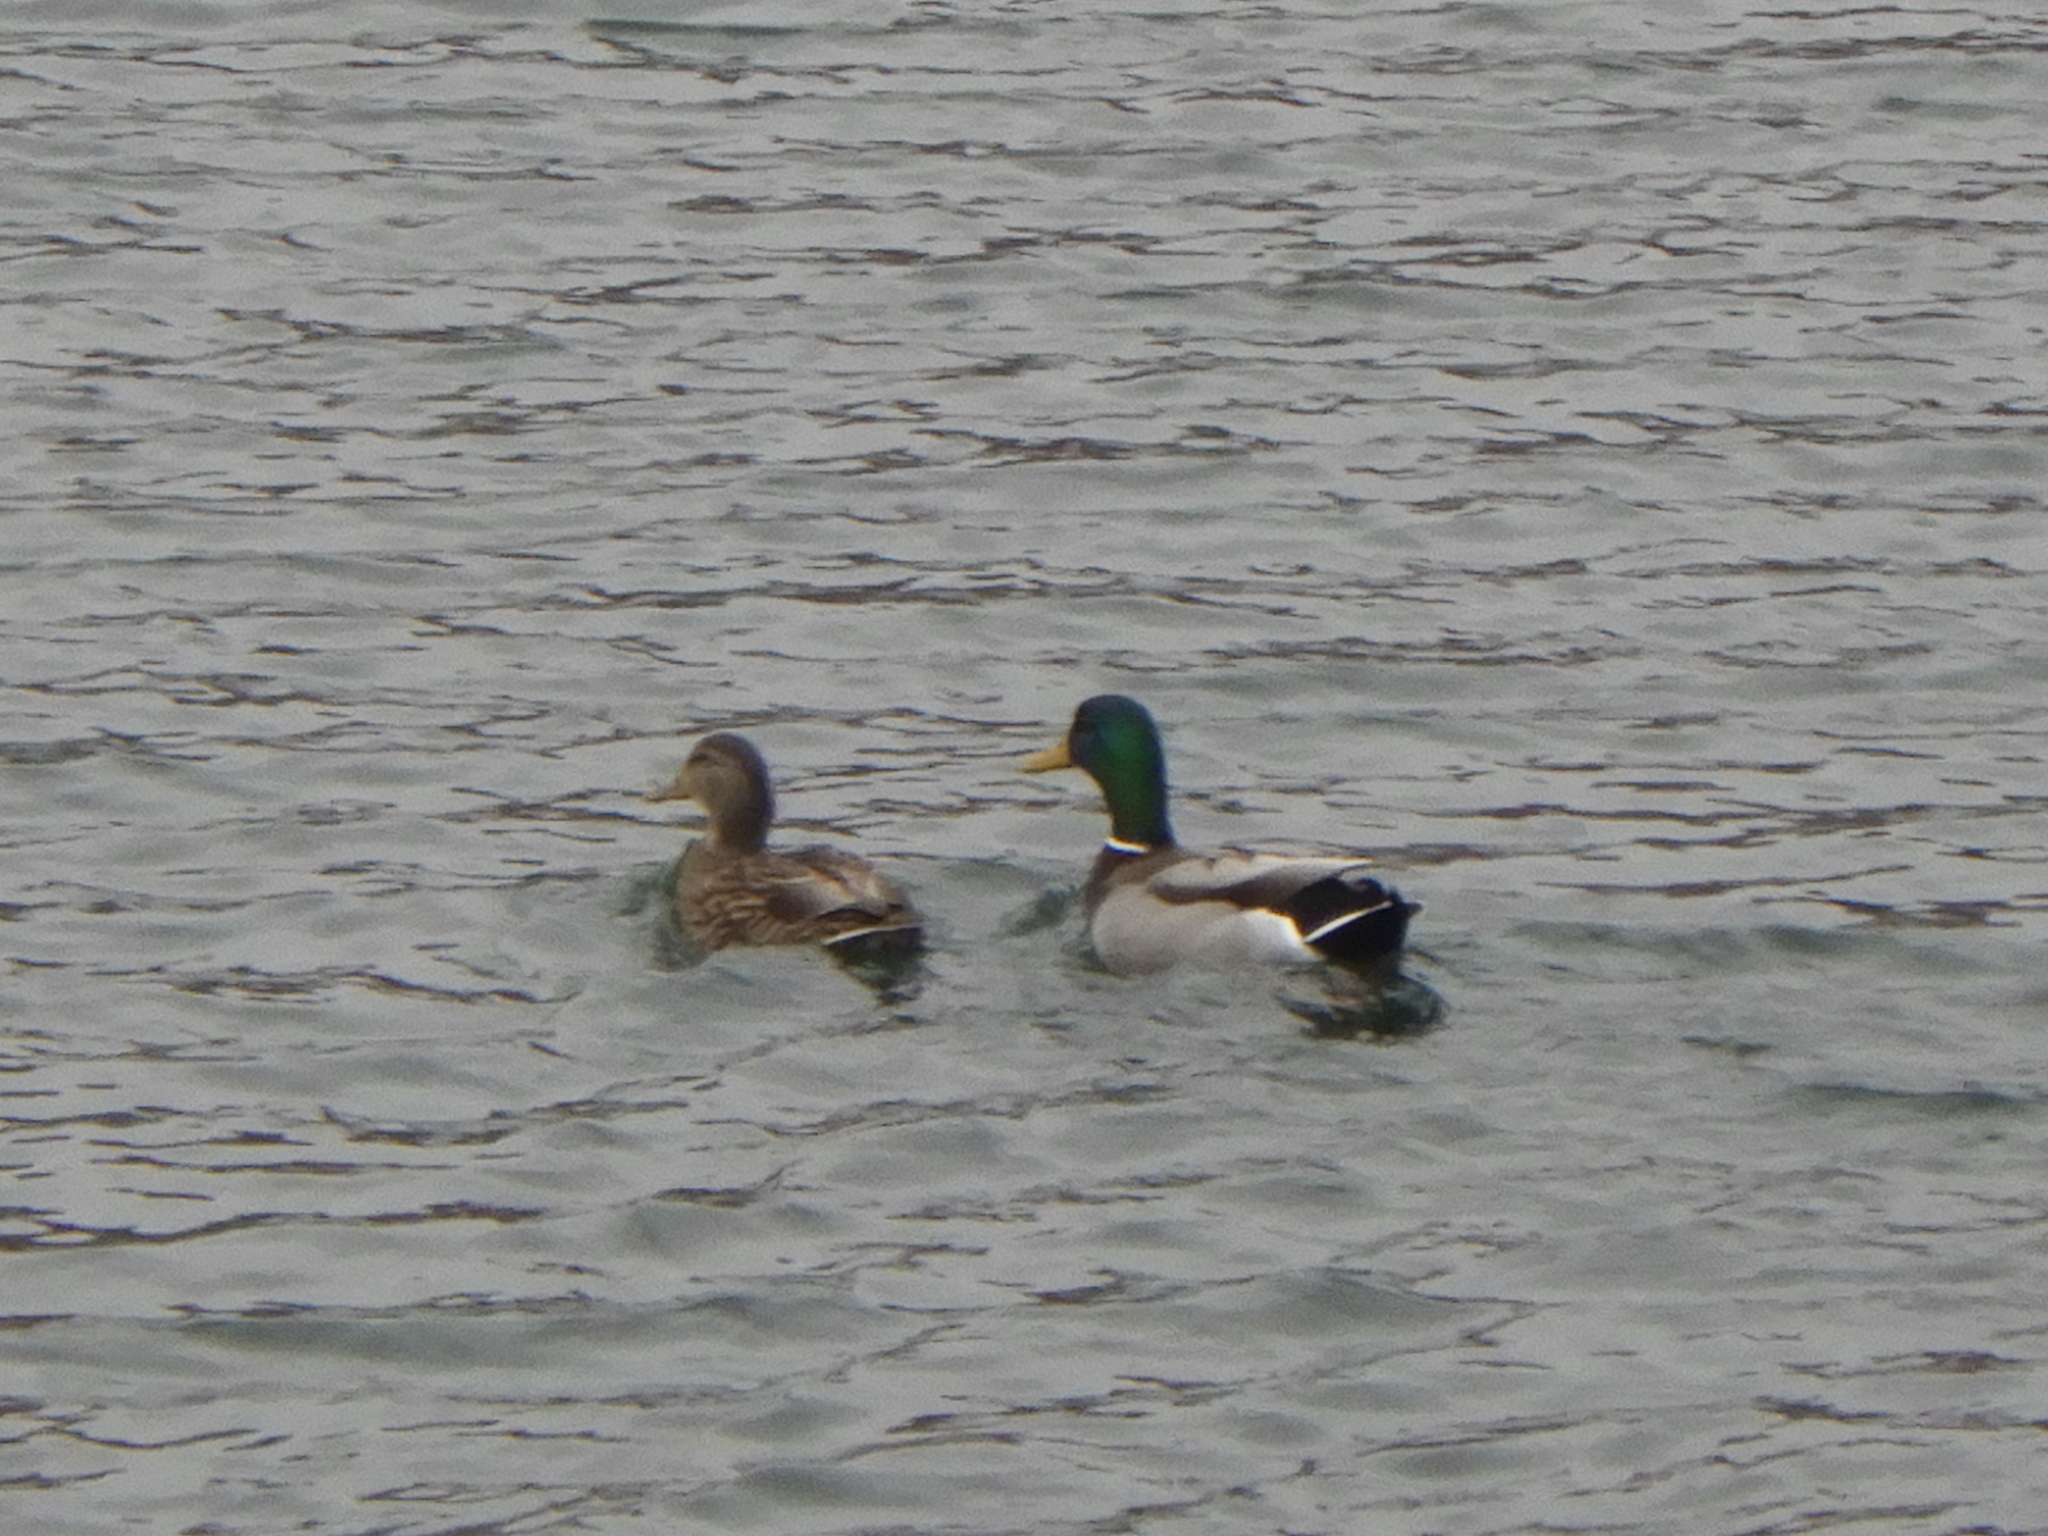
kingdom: Animalia
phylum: Chordata
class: Aves
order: Anseriformes
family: Anatidae
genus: Anas
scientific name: Anas platyrhynchos
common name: Mallard
